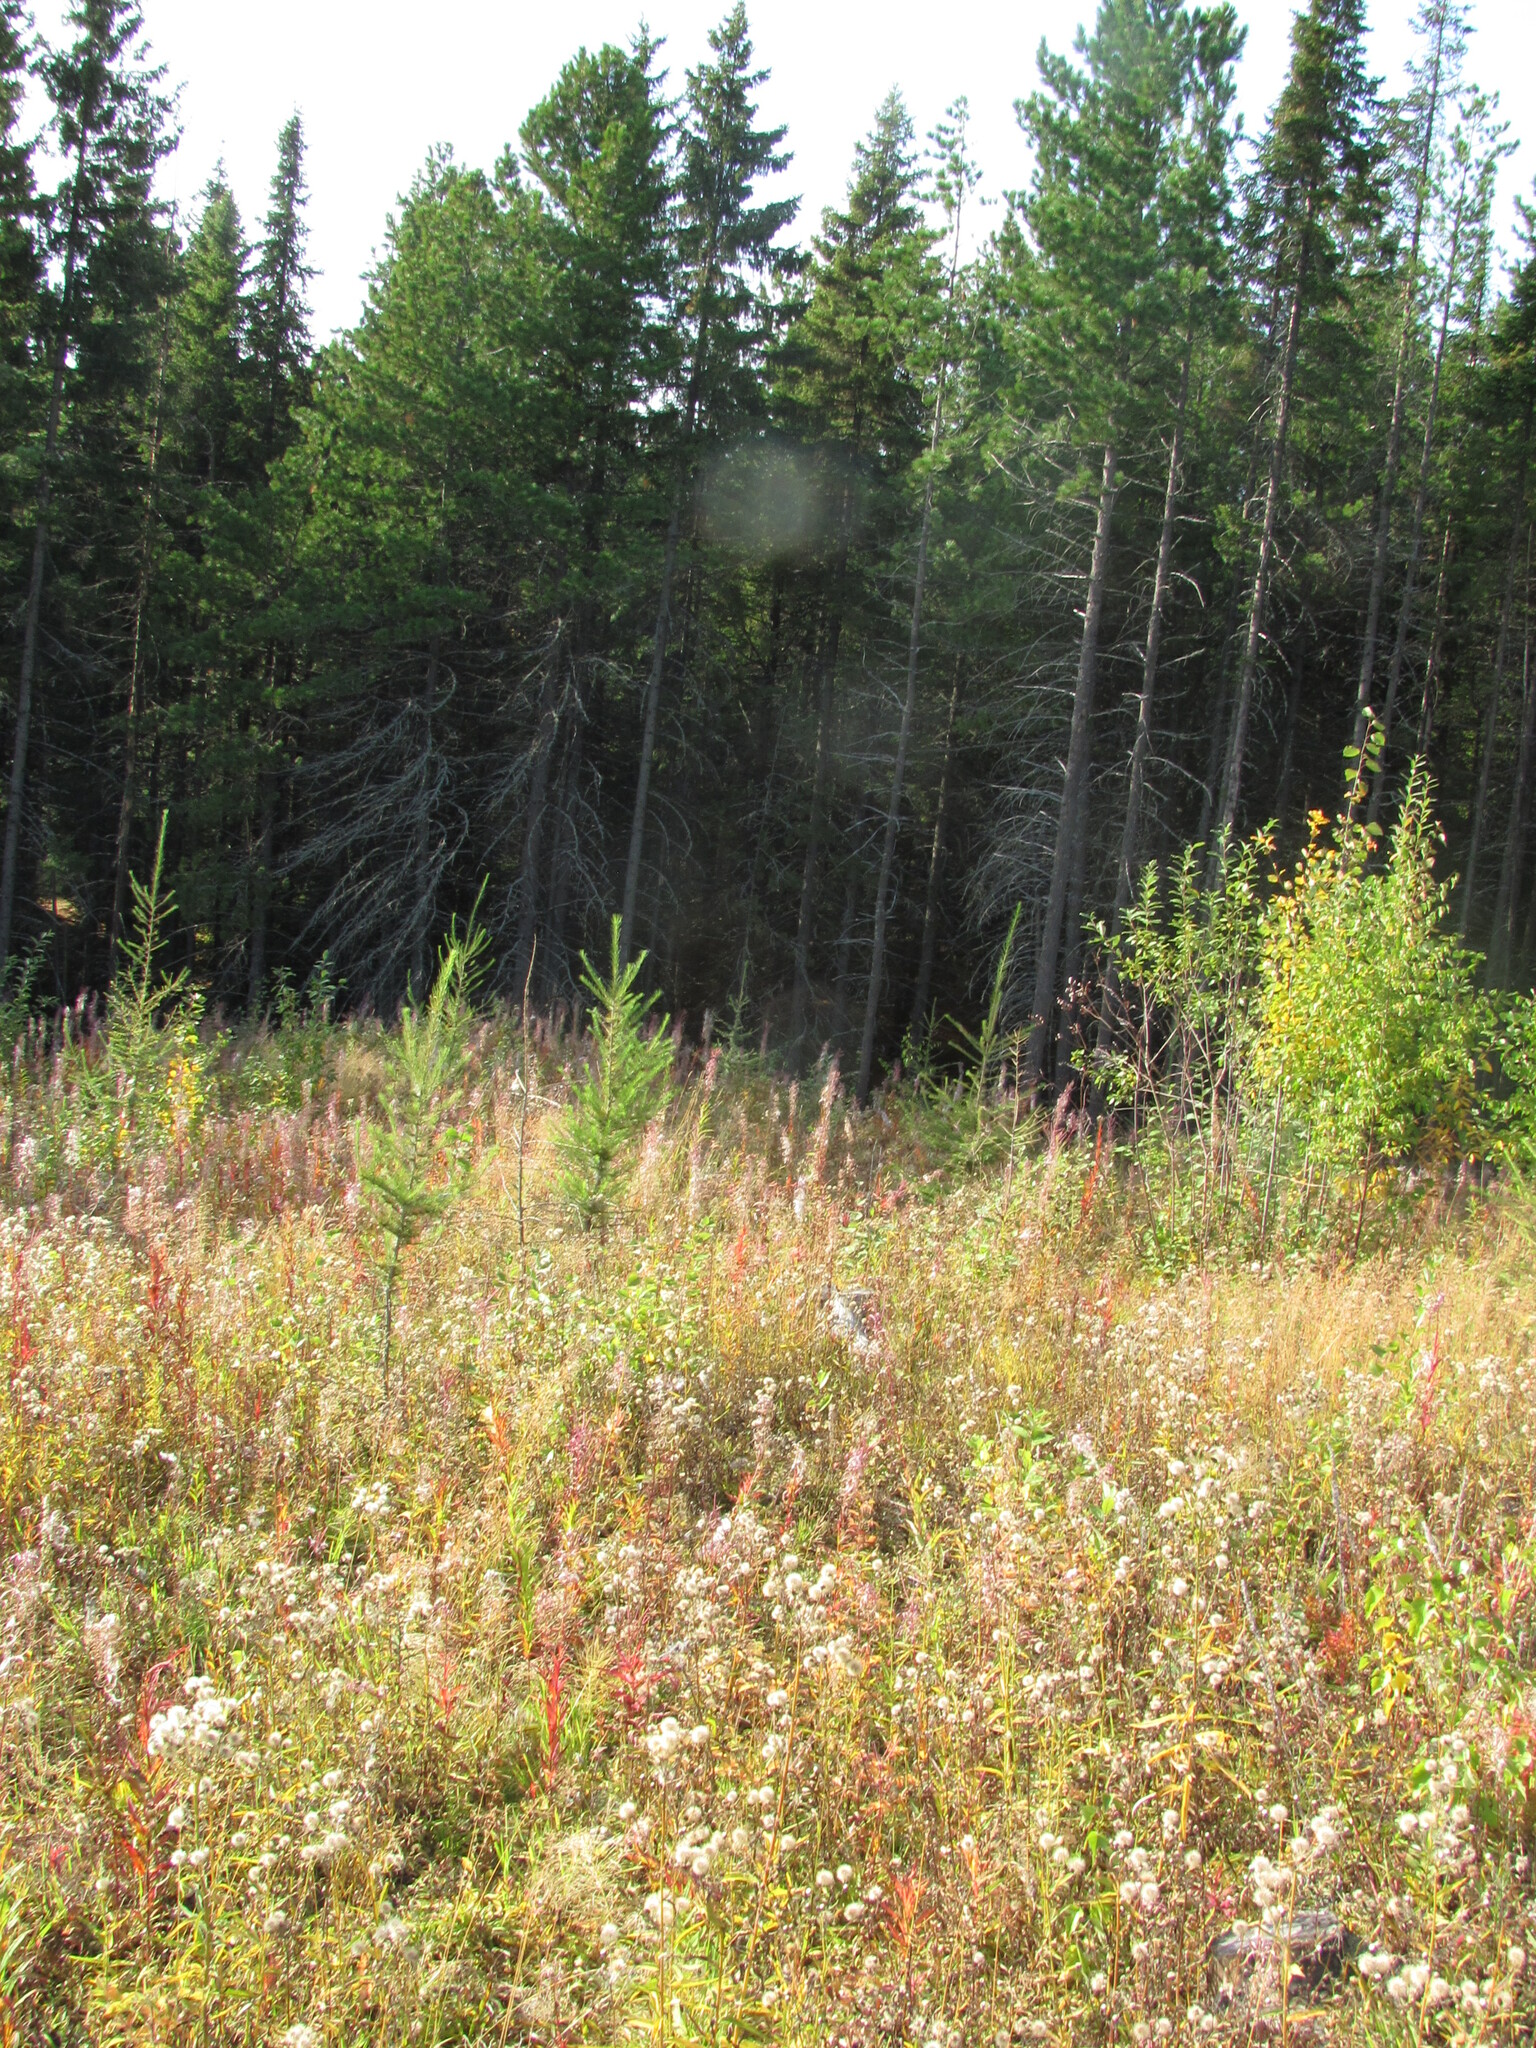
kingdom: Plantae
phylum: Tracheophyta
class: Magnoliopsida
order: Asterales
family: Asteraceae
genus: Hieracium
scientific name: Hieracium umbellatum
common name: Northern hawkweed
